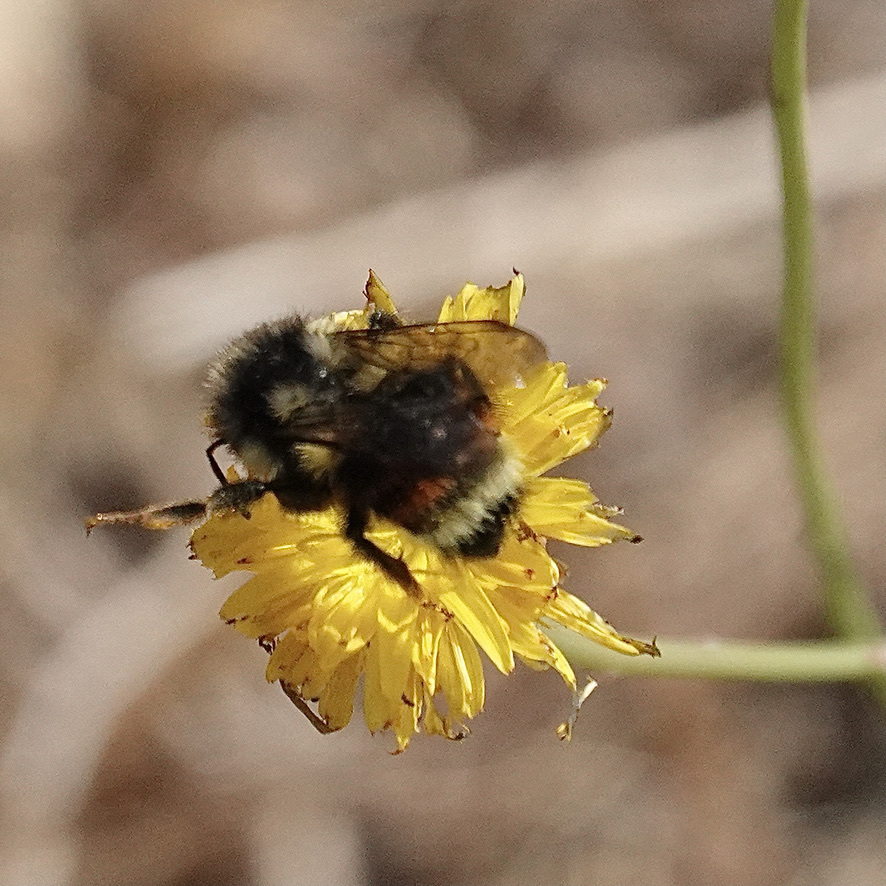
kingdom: Animalia
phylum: Arthropoda
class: Insecta
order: Hymenoptera
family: Apidae
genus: Bombus
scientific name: Bombus vancouverensis
